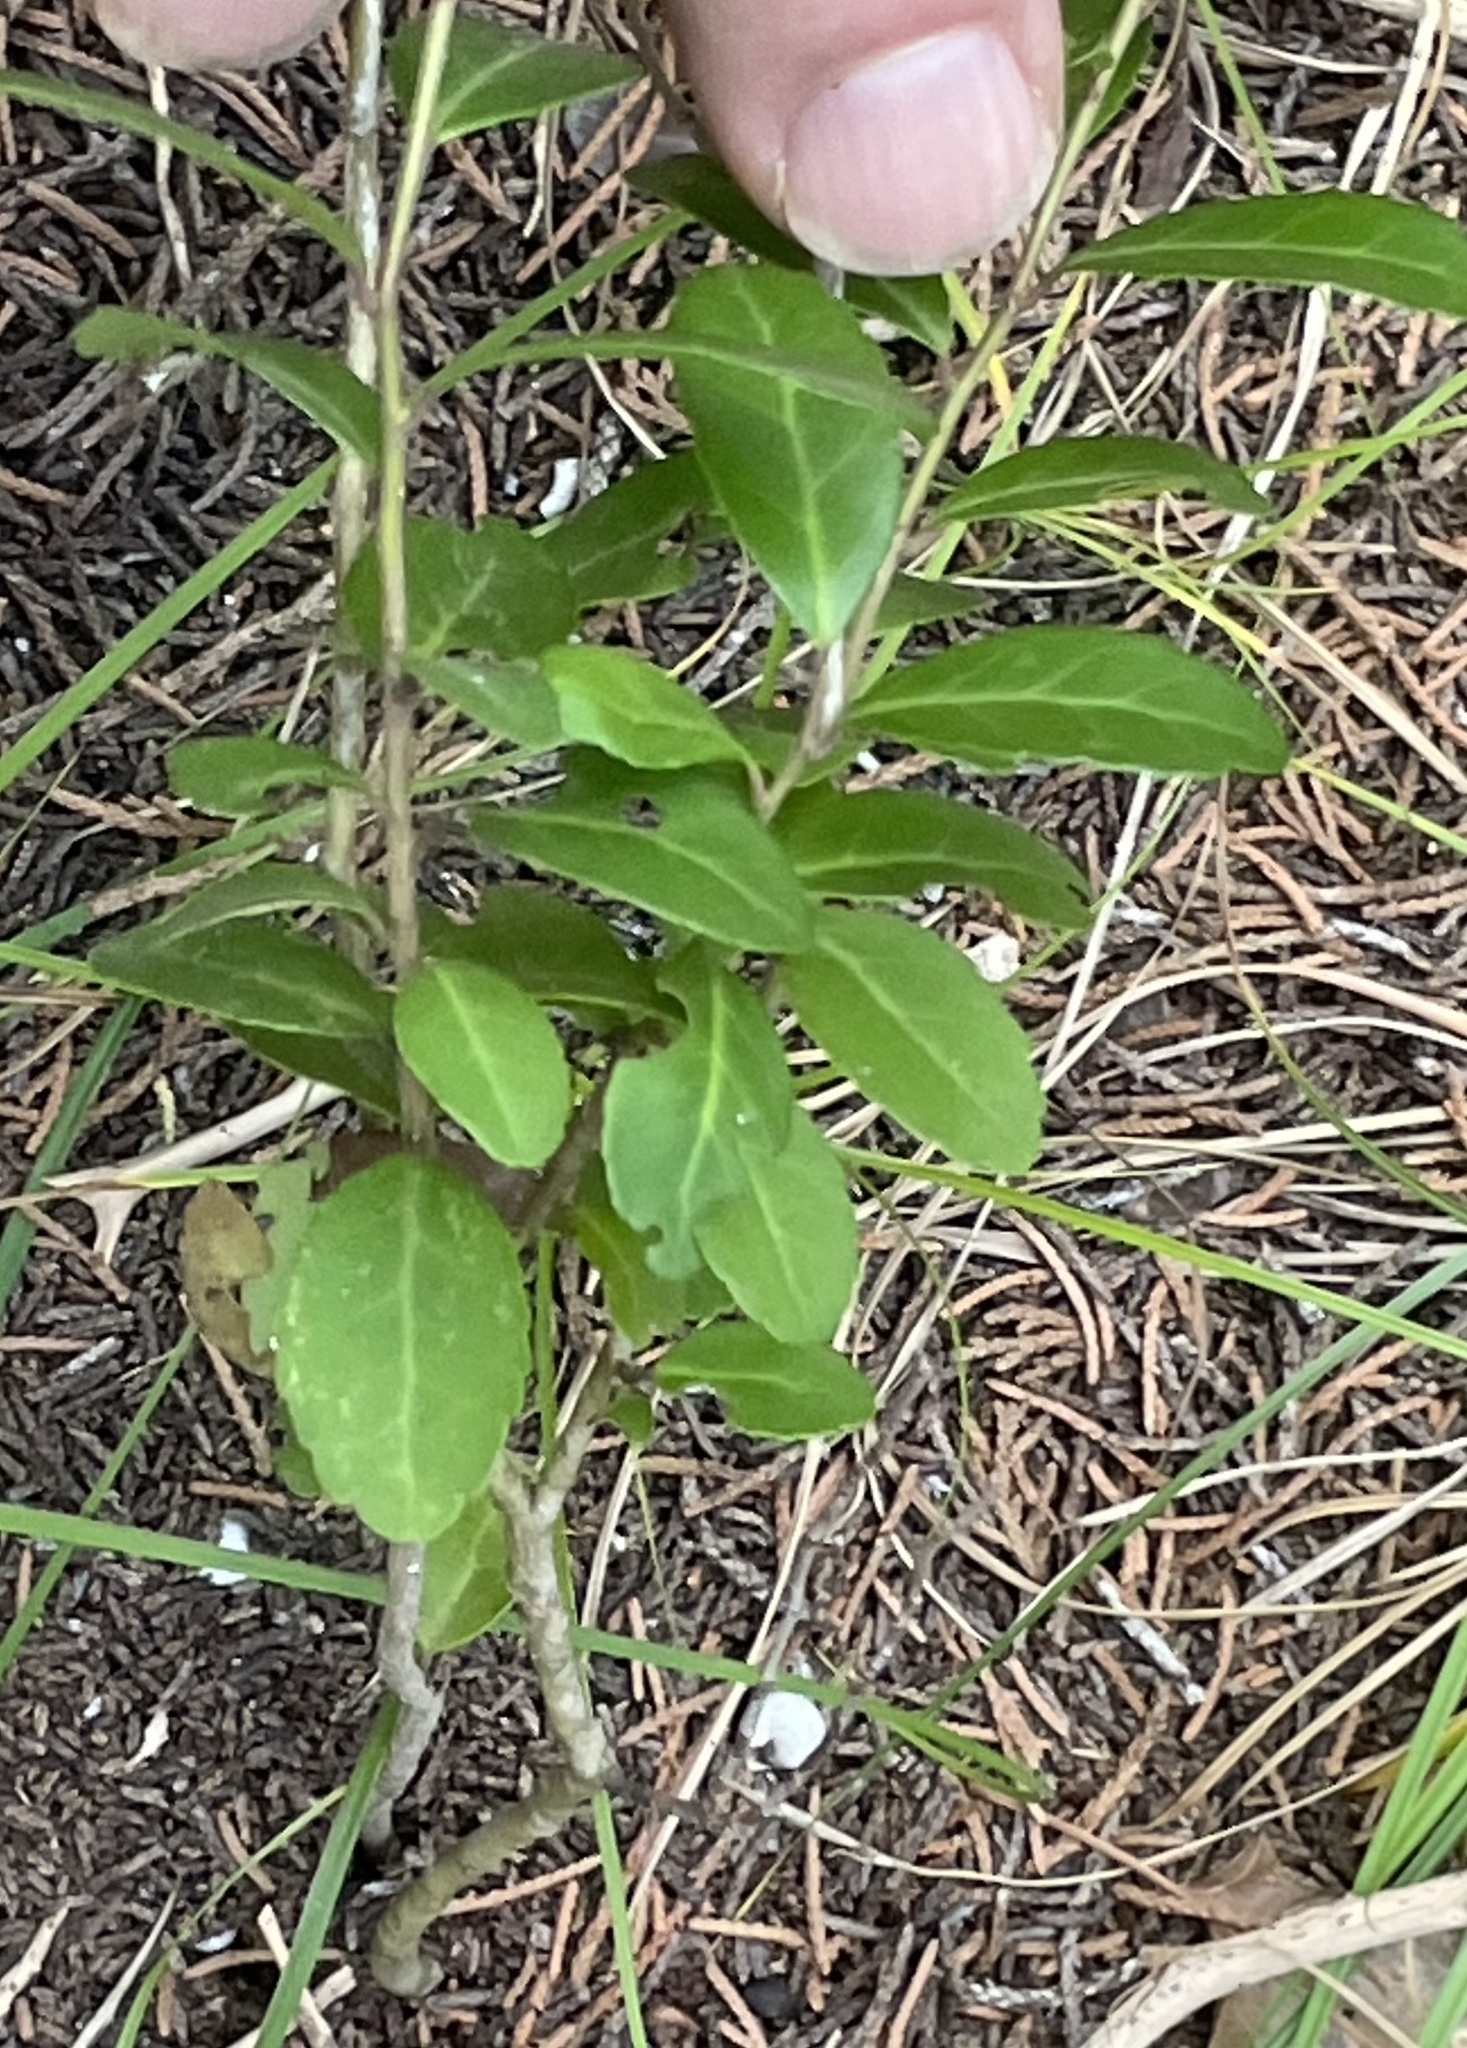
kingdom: Plantae
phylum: Tracheophyta
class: Magnoliopsida
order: Aquifoliales
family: Aquifoliaceae
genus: Ilex
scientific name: Ilex vomitoria
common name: Yaupon holly
